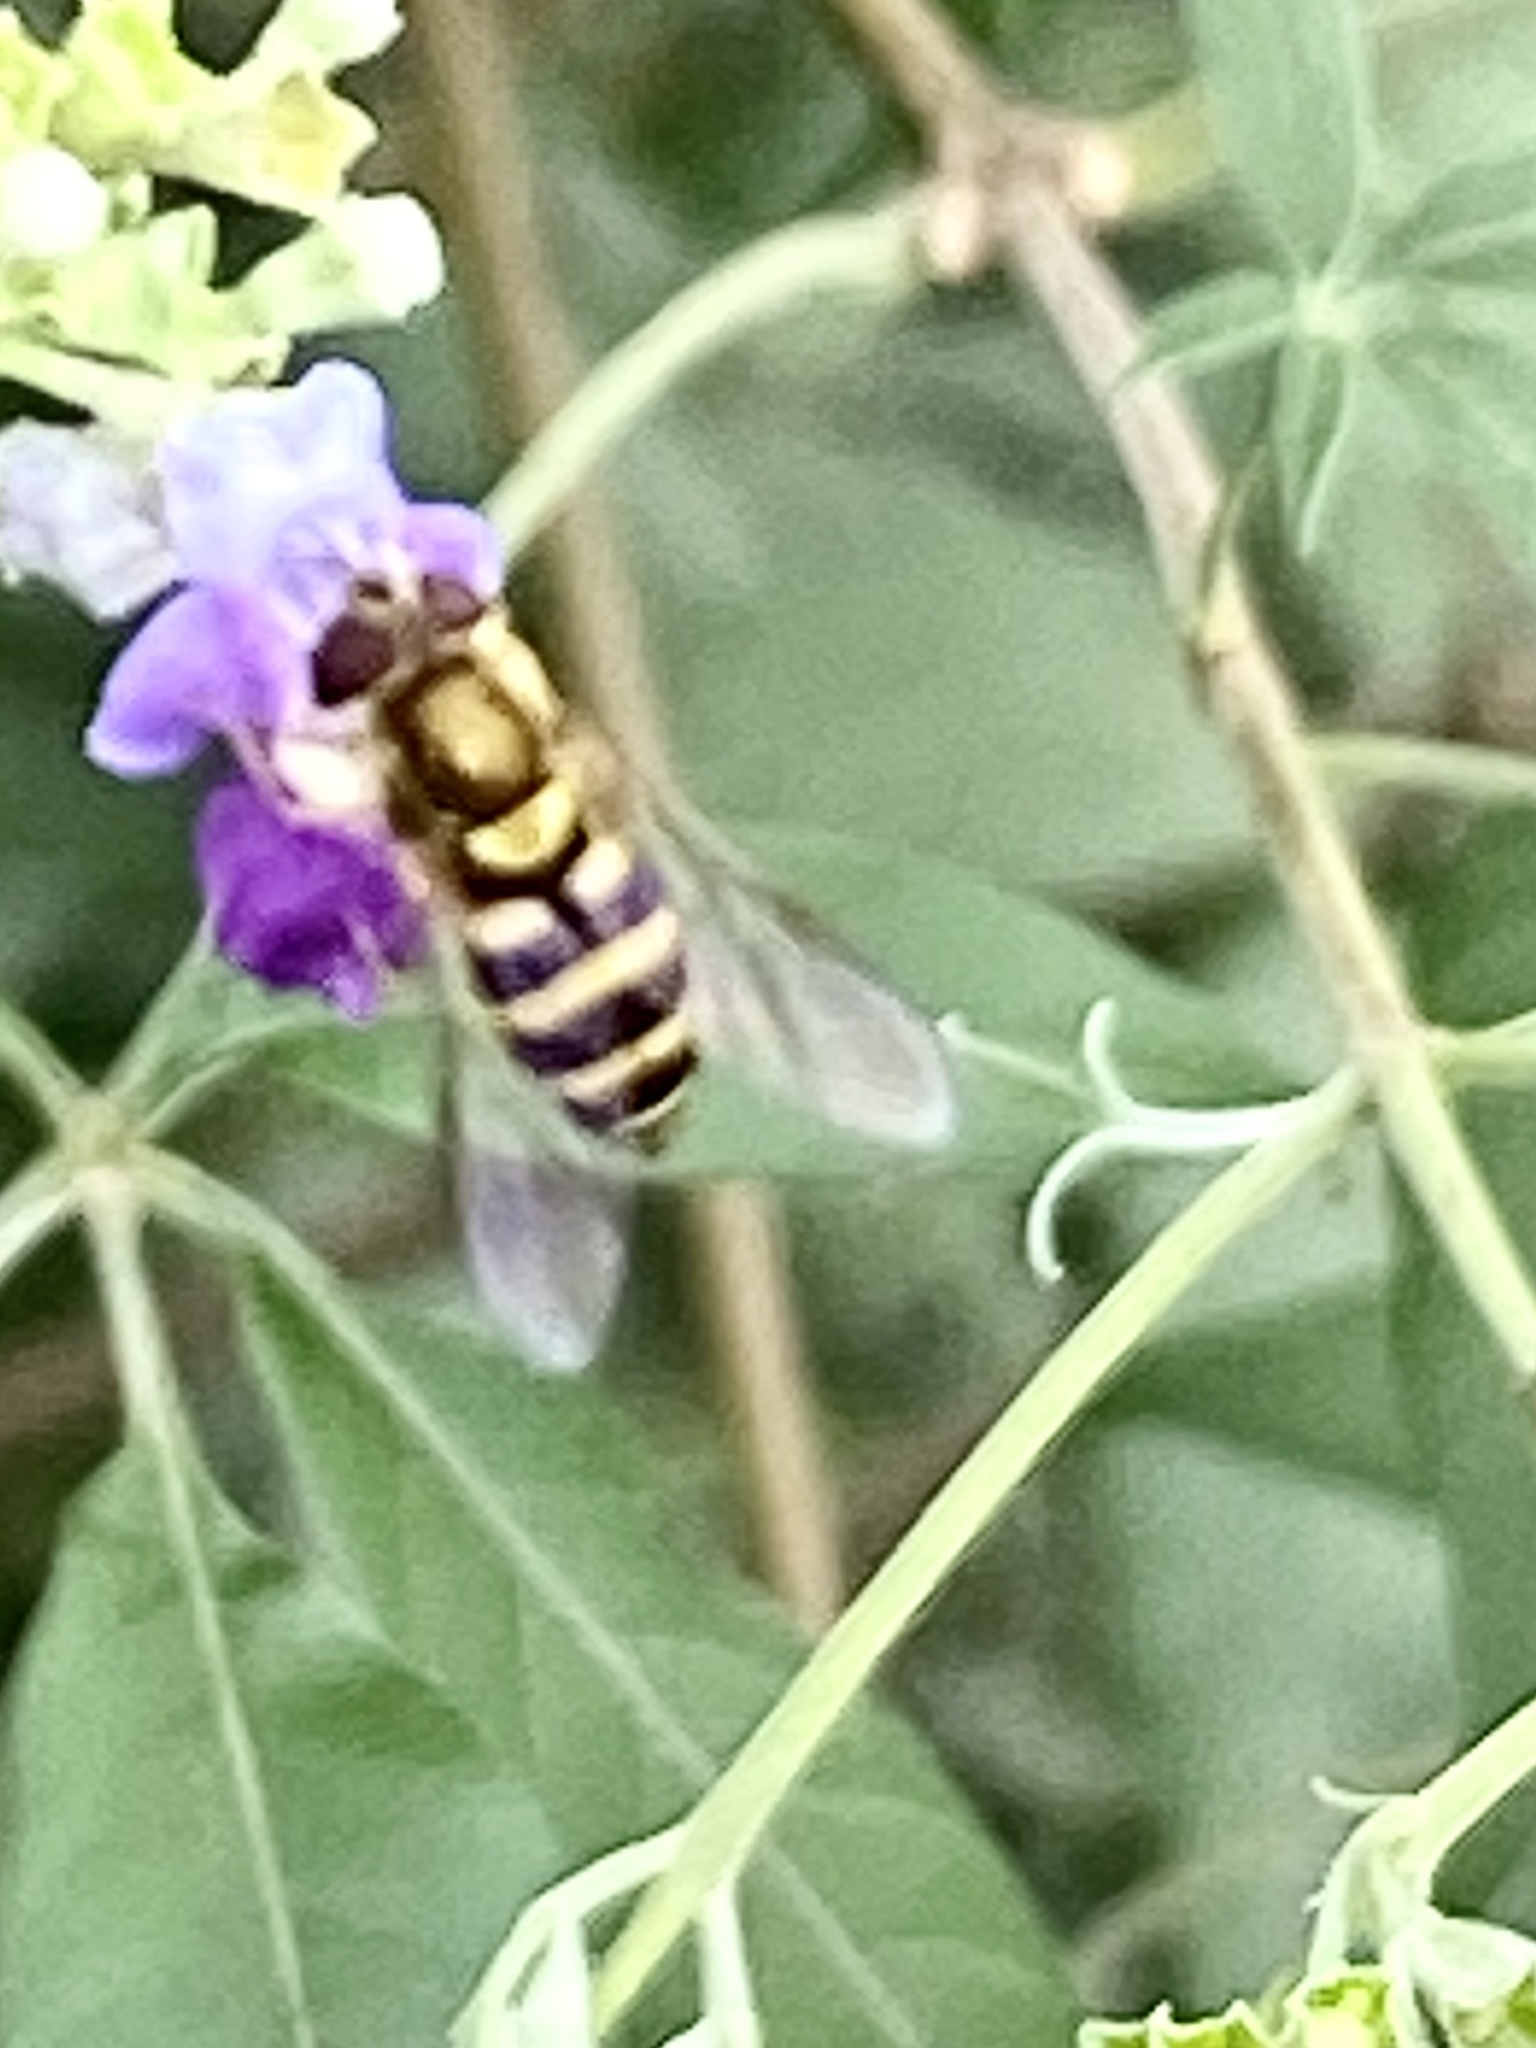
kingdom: Animalia
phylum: Arthropoda
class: Insecta
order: Diptera
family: Syrphidae
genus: Syrphus
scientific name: Syrphus
